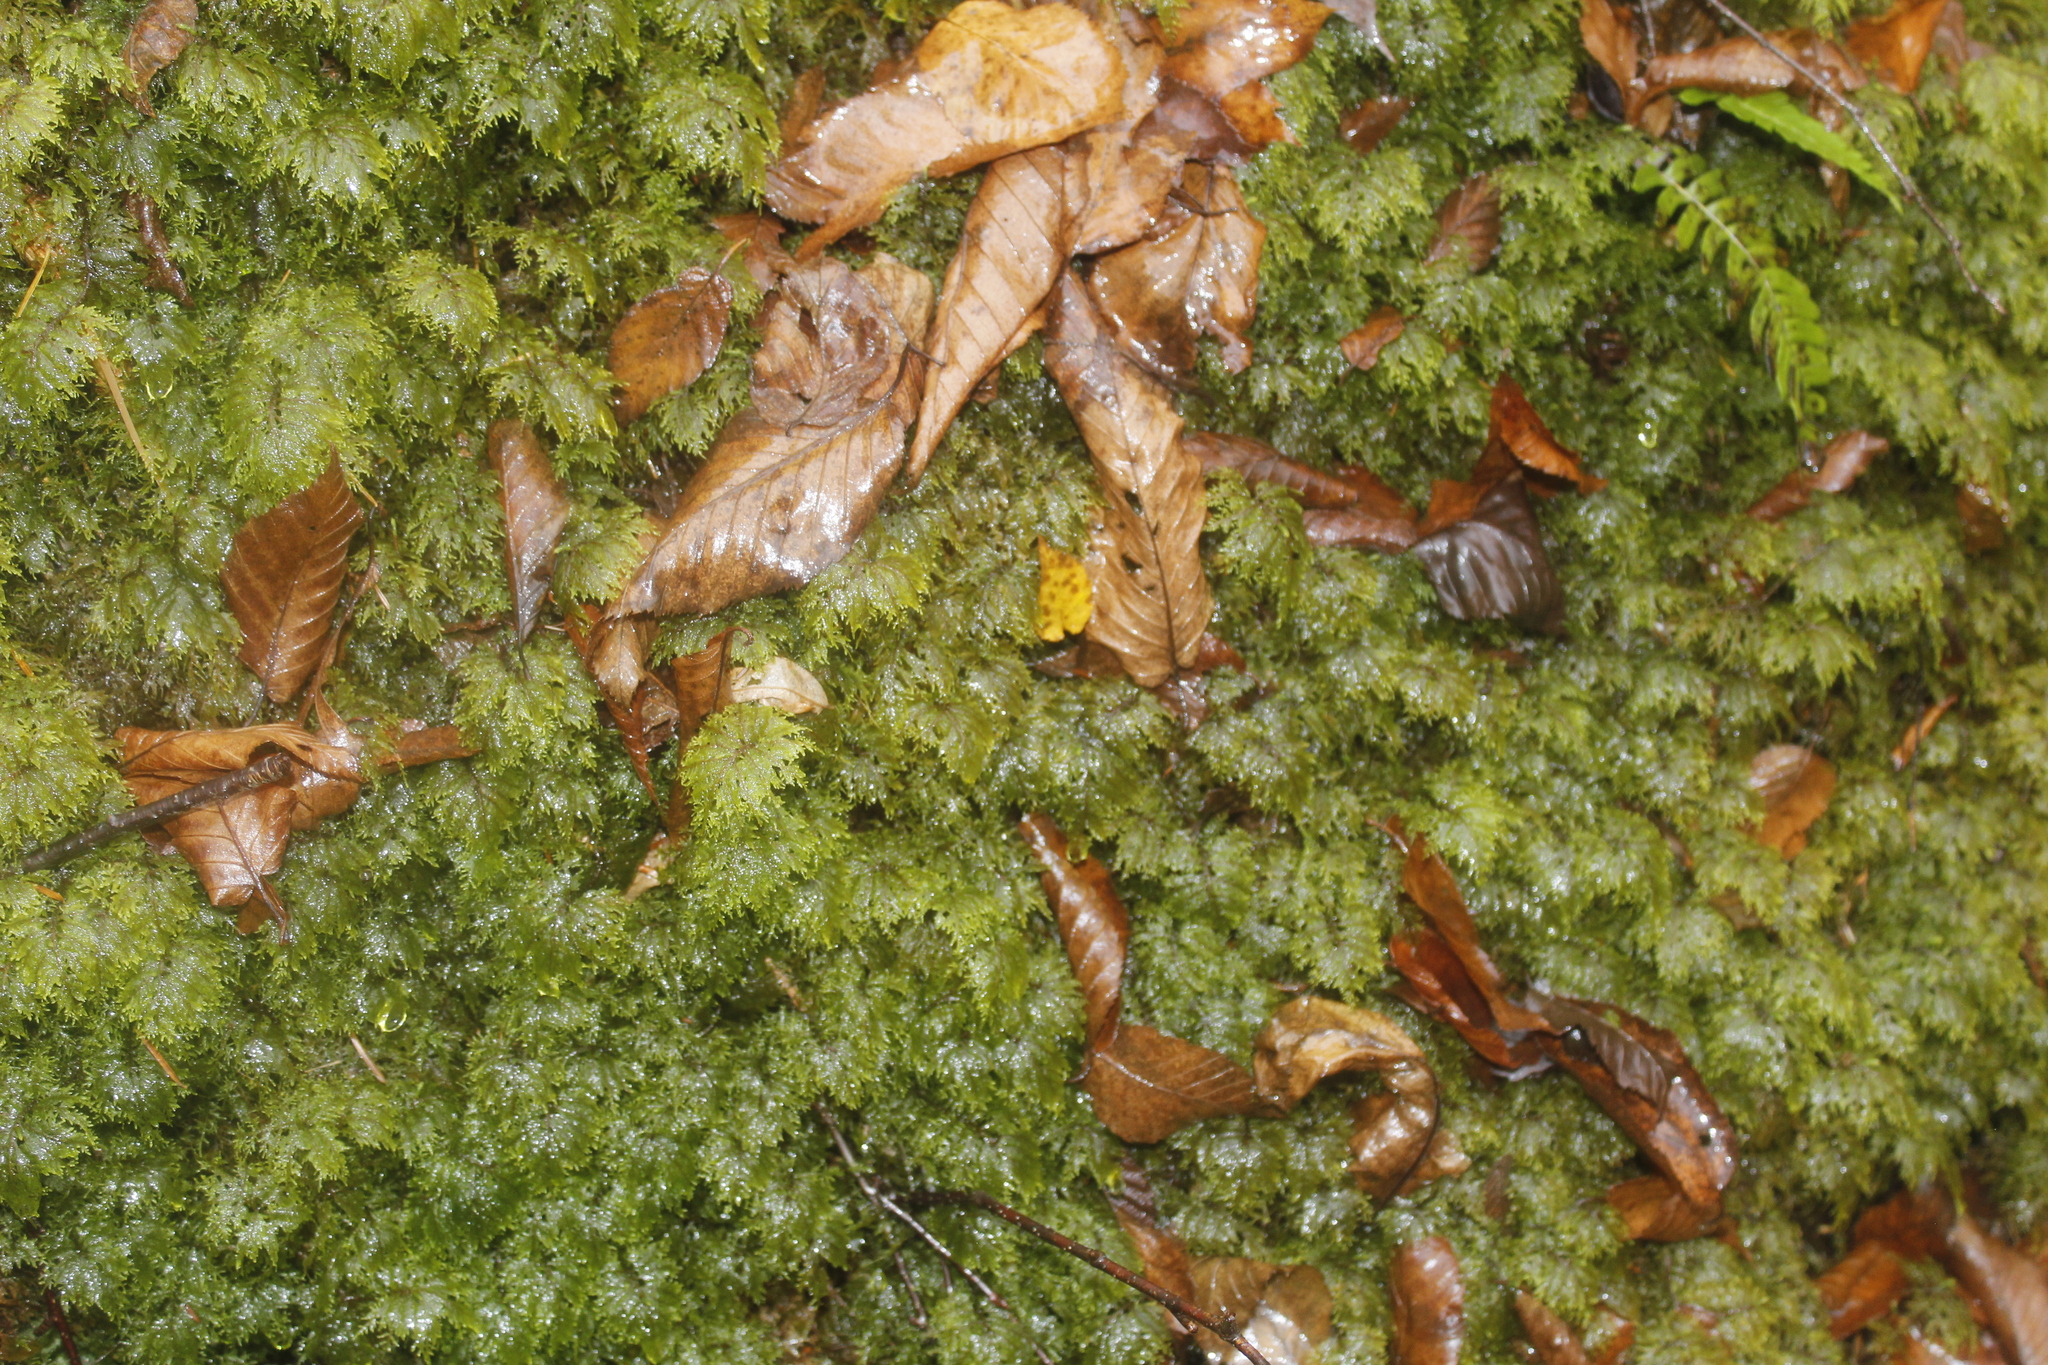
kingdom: Plantae
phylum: Bryophyta
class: Bryopsida
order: Hypnales
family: Hylocomiaceae
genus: Hylocomium
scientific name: Hylocomium splendens
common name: Stairstep moss
